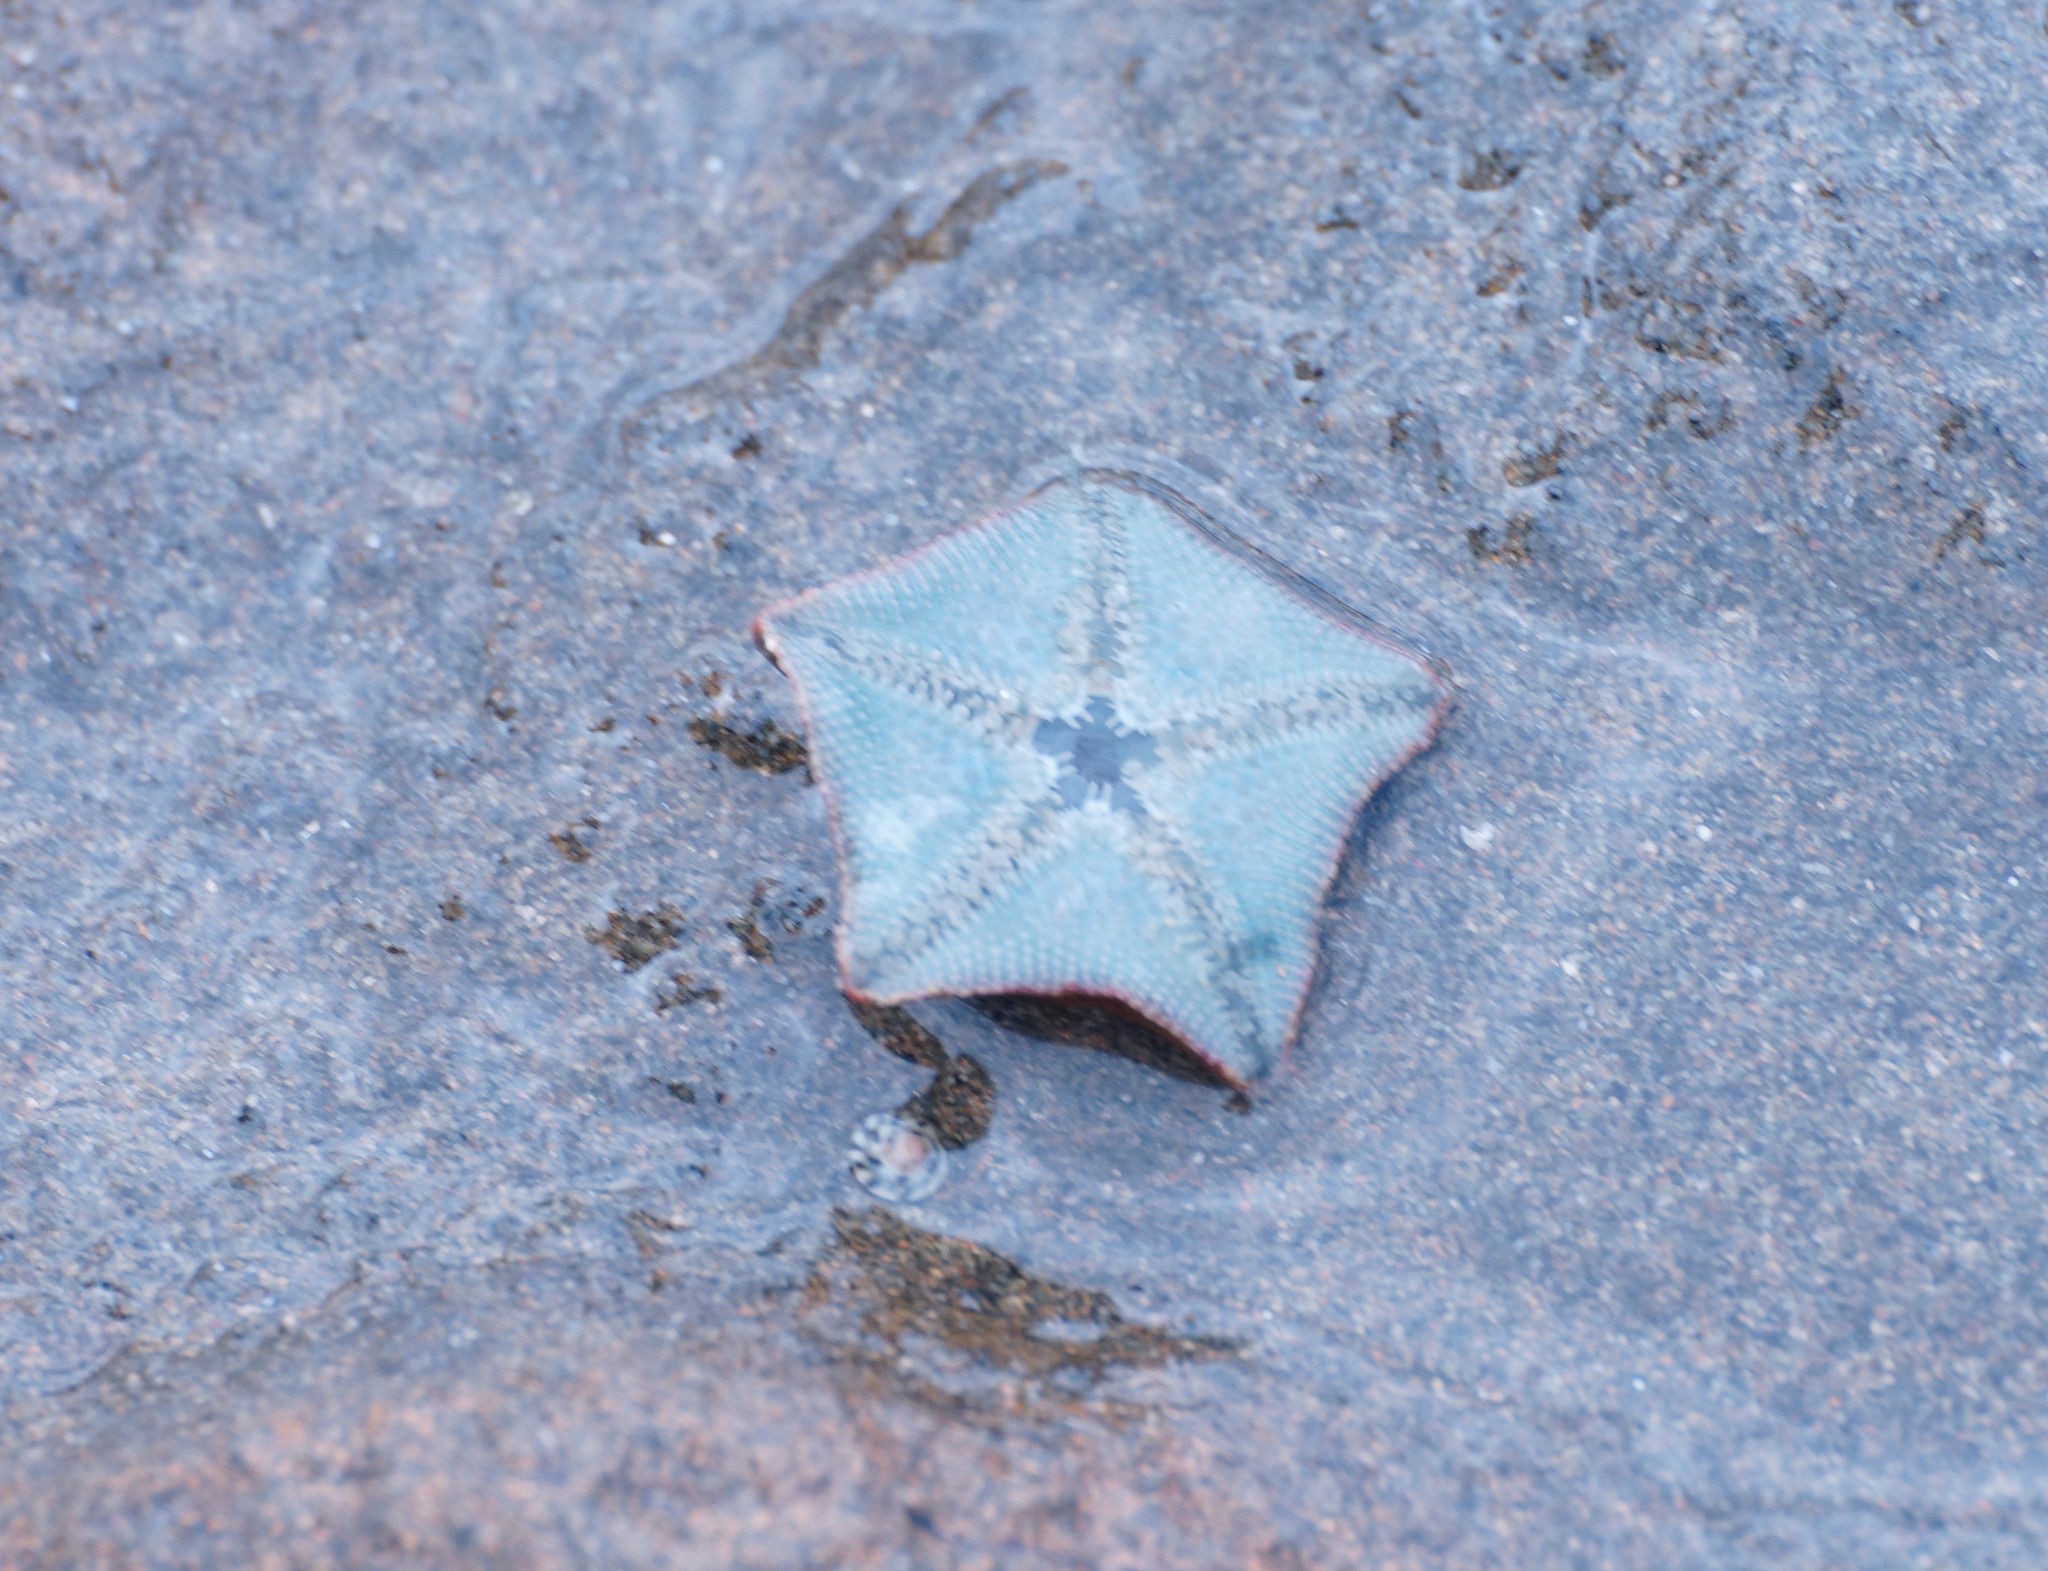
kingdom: Animalia
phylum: Echinodermata
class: Asteroidea
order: Valvatida
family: Asterinidae
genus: Parvulastra
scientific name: Parvulastra exigua
